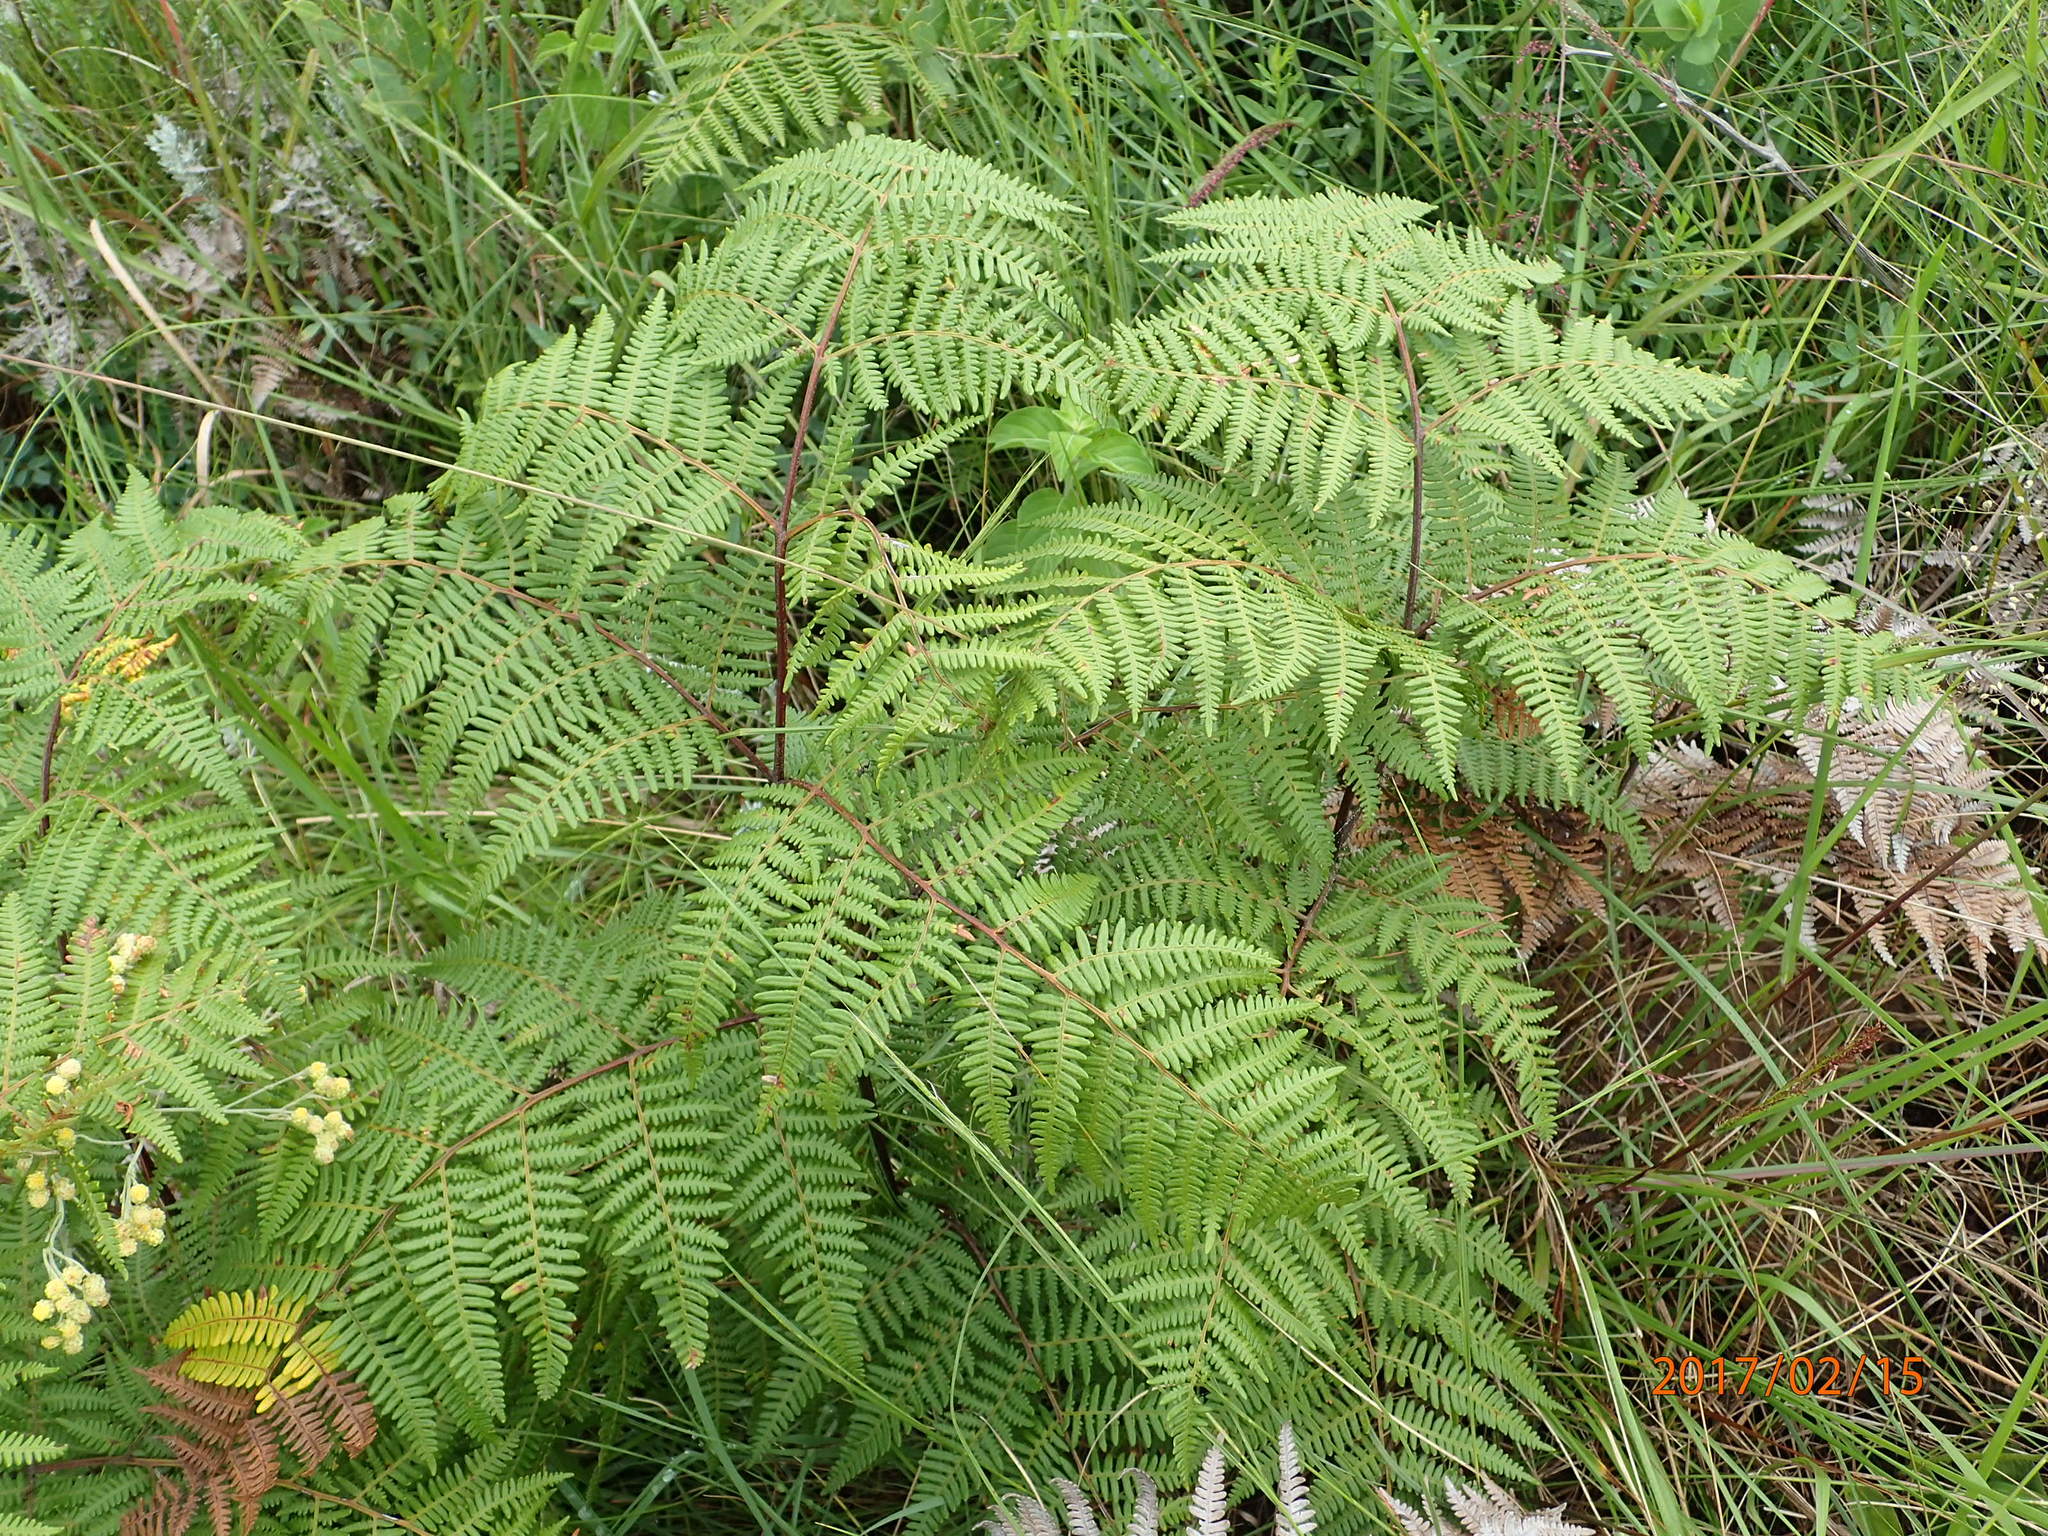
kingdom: Plantae
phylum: Tracheophyta
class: Polypodiopsida
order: Polypodiales
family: Dennstaedtiaceae
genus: Pteridium
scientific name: Pteridium aquilinum
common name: Bracken
